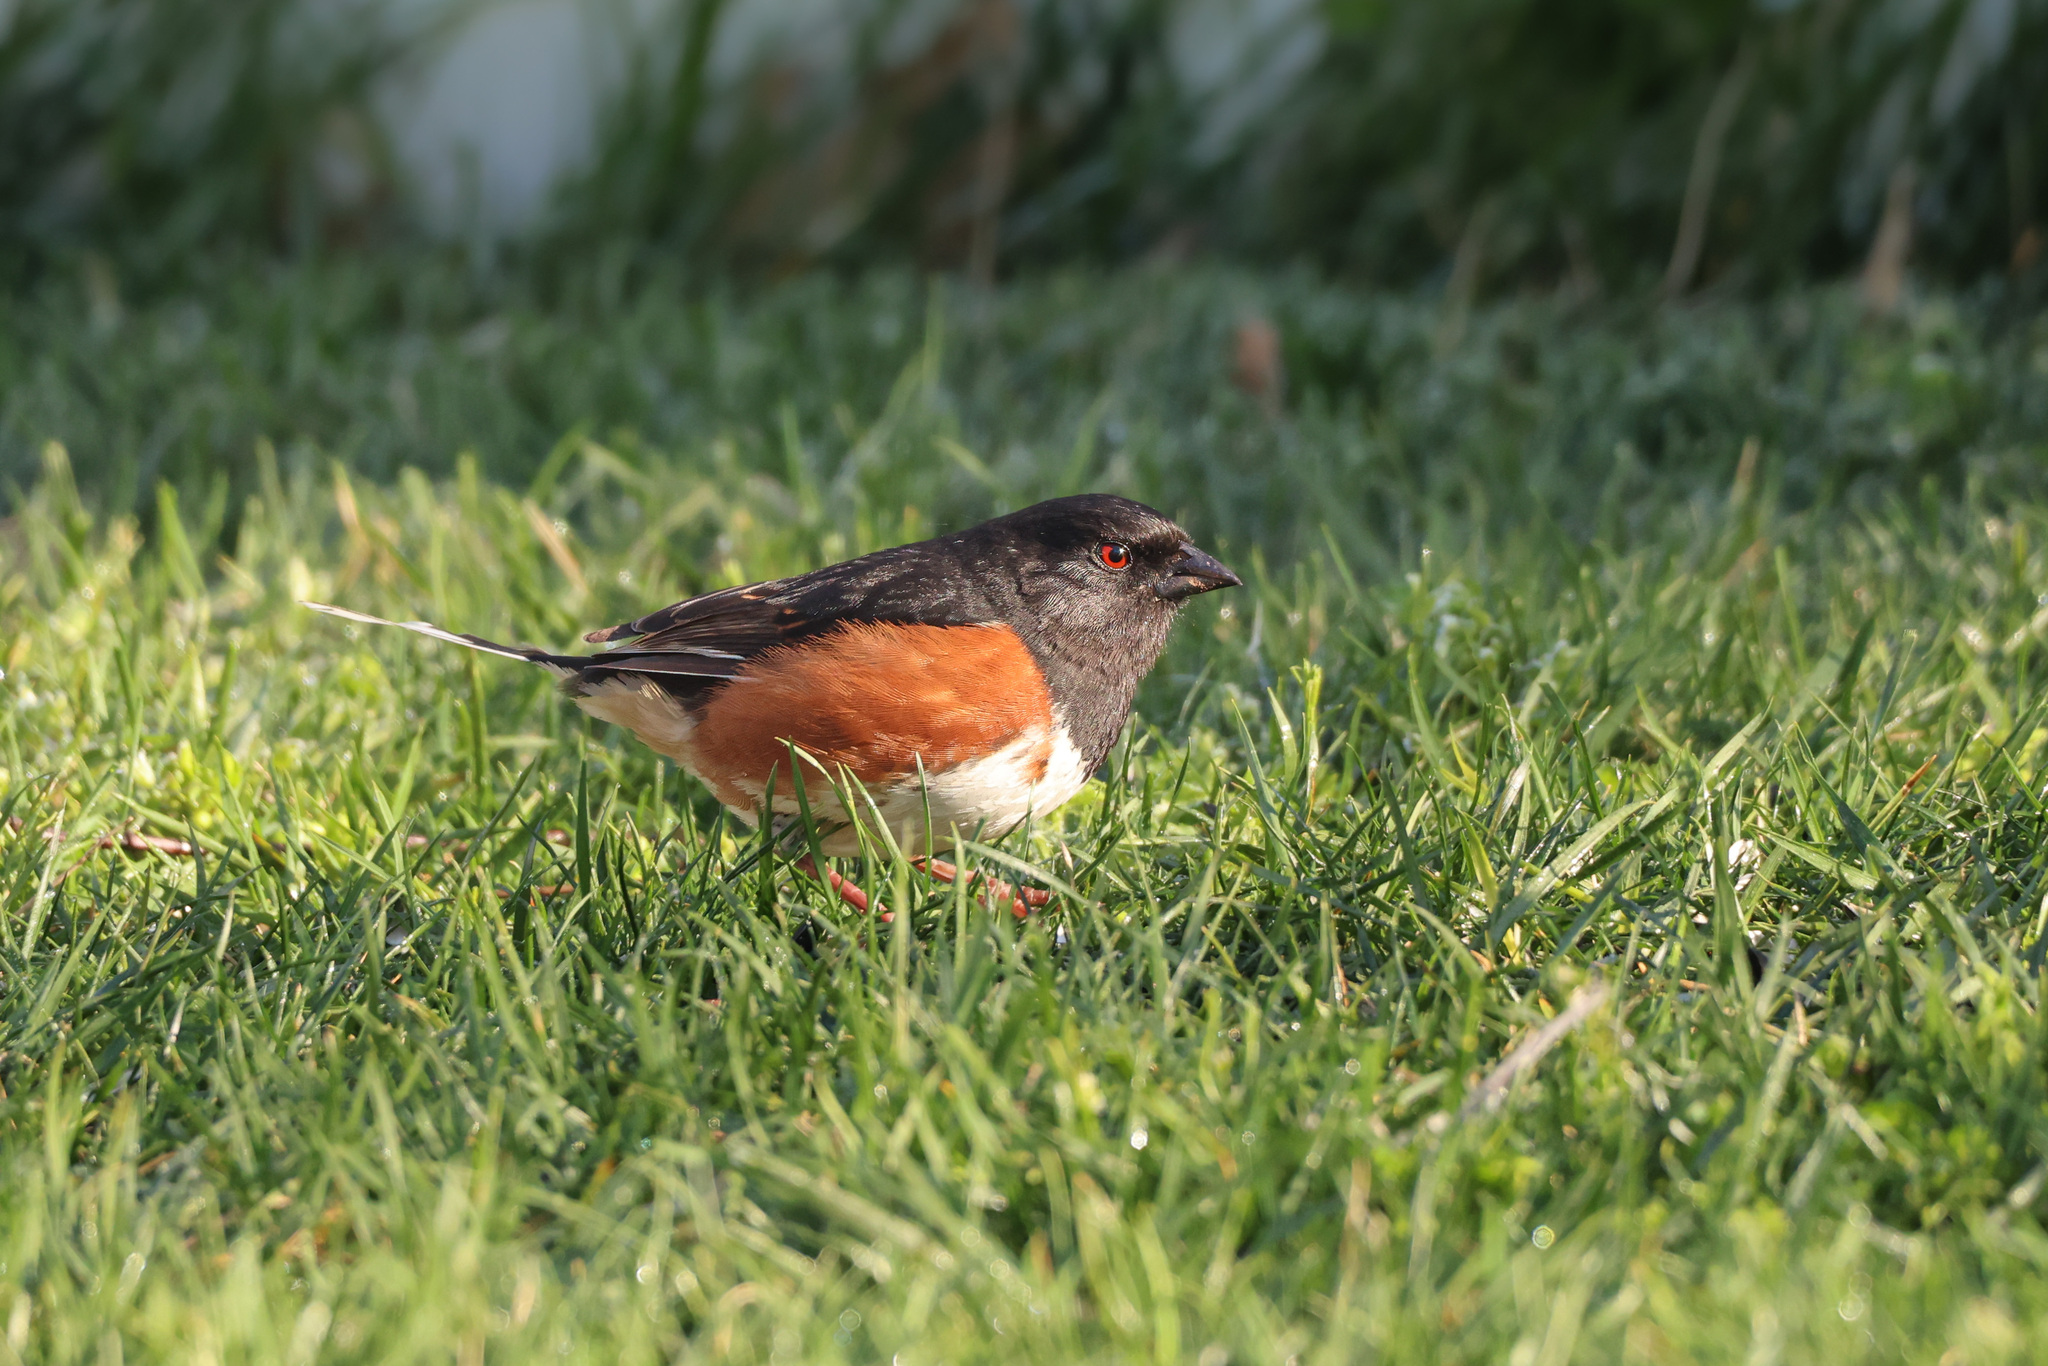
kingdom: Animalia
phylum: Chordata
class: Aves
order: Passeriformes
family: Passerellidae
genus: Pipilo
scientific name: Pipilo erythrophthalmus
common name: Eastern towhee
